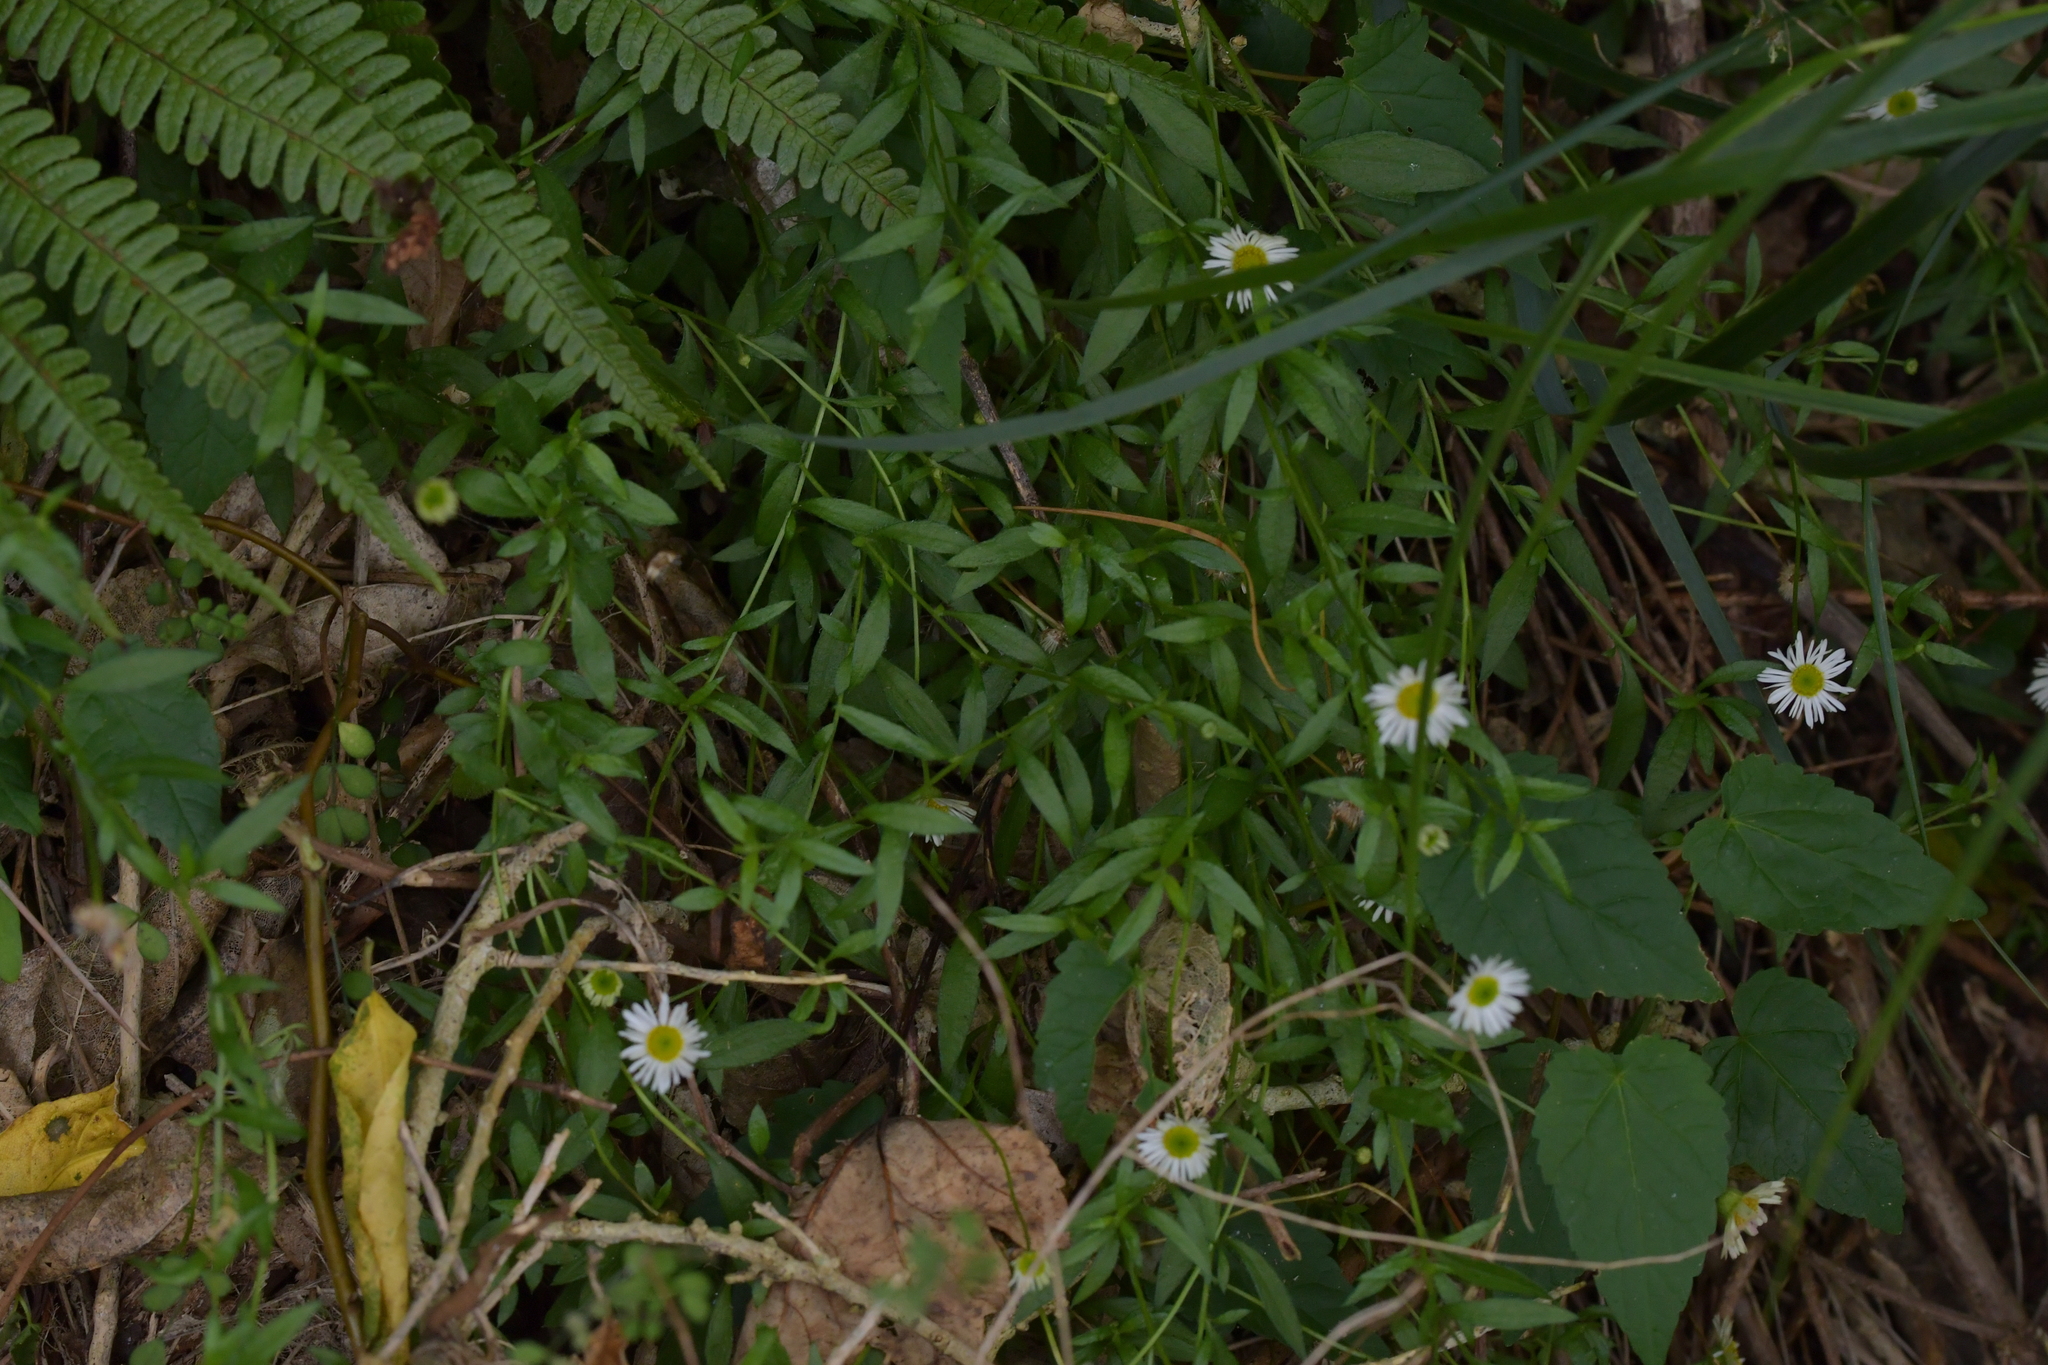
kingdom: Plantae
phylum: Tracheophyta
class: Magnoliopsida
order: Asterales
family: Asteraceae
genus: Erigeron
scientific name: Erigeron karvinskianus
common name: Mexican fleabane
